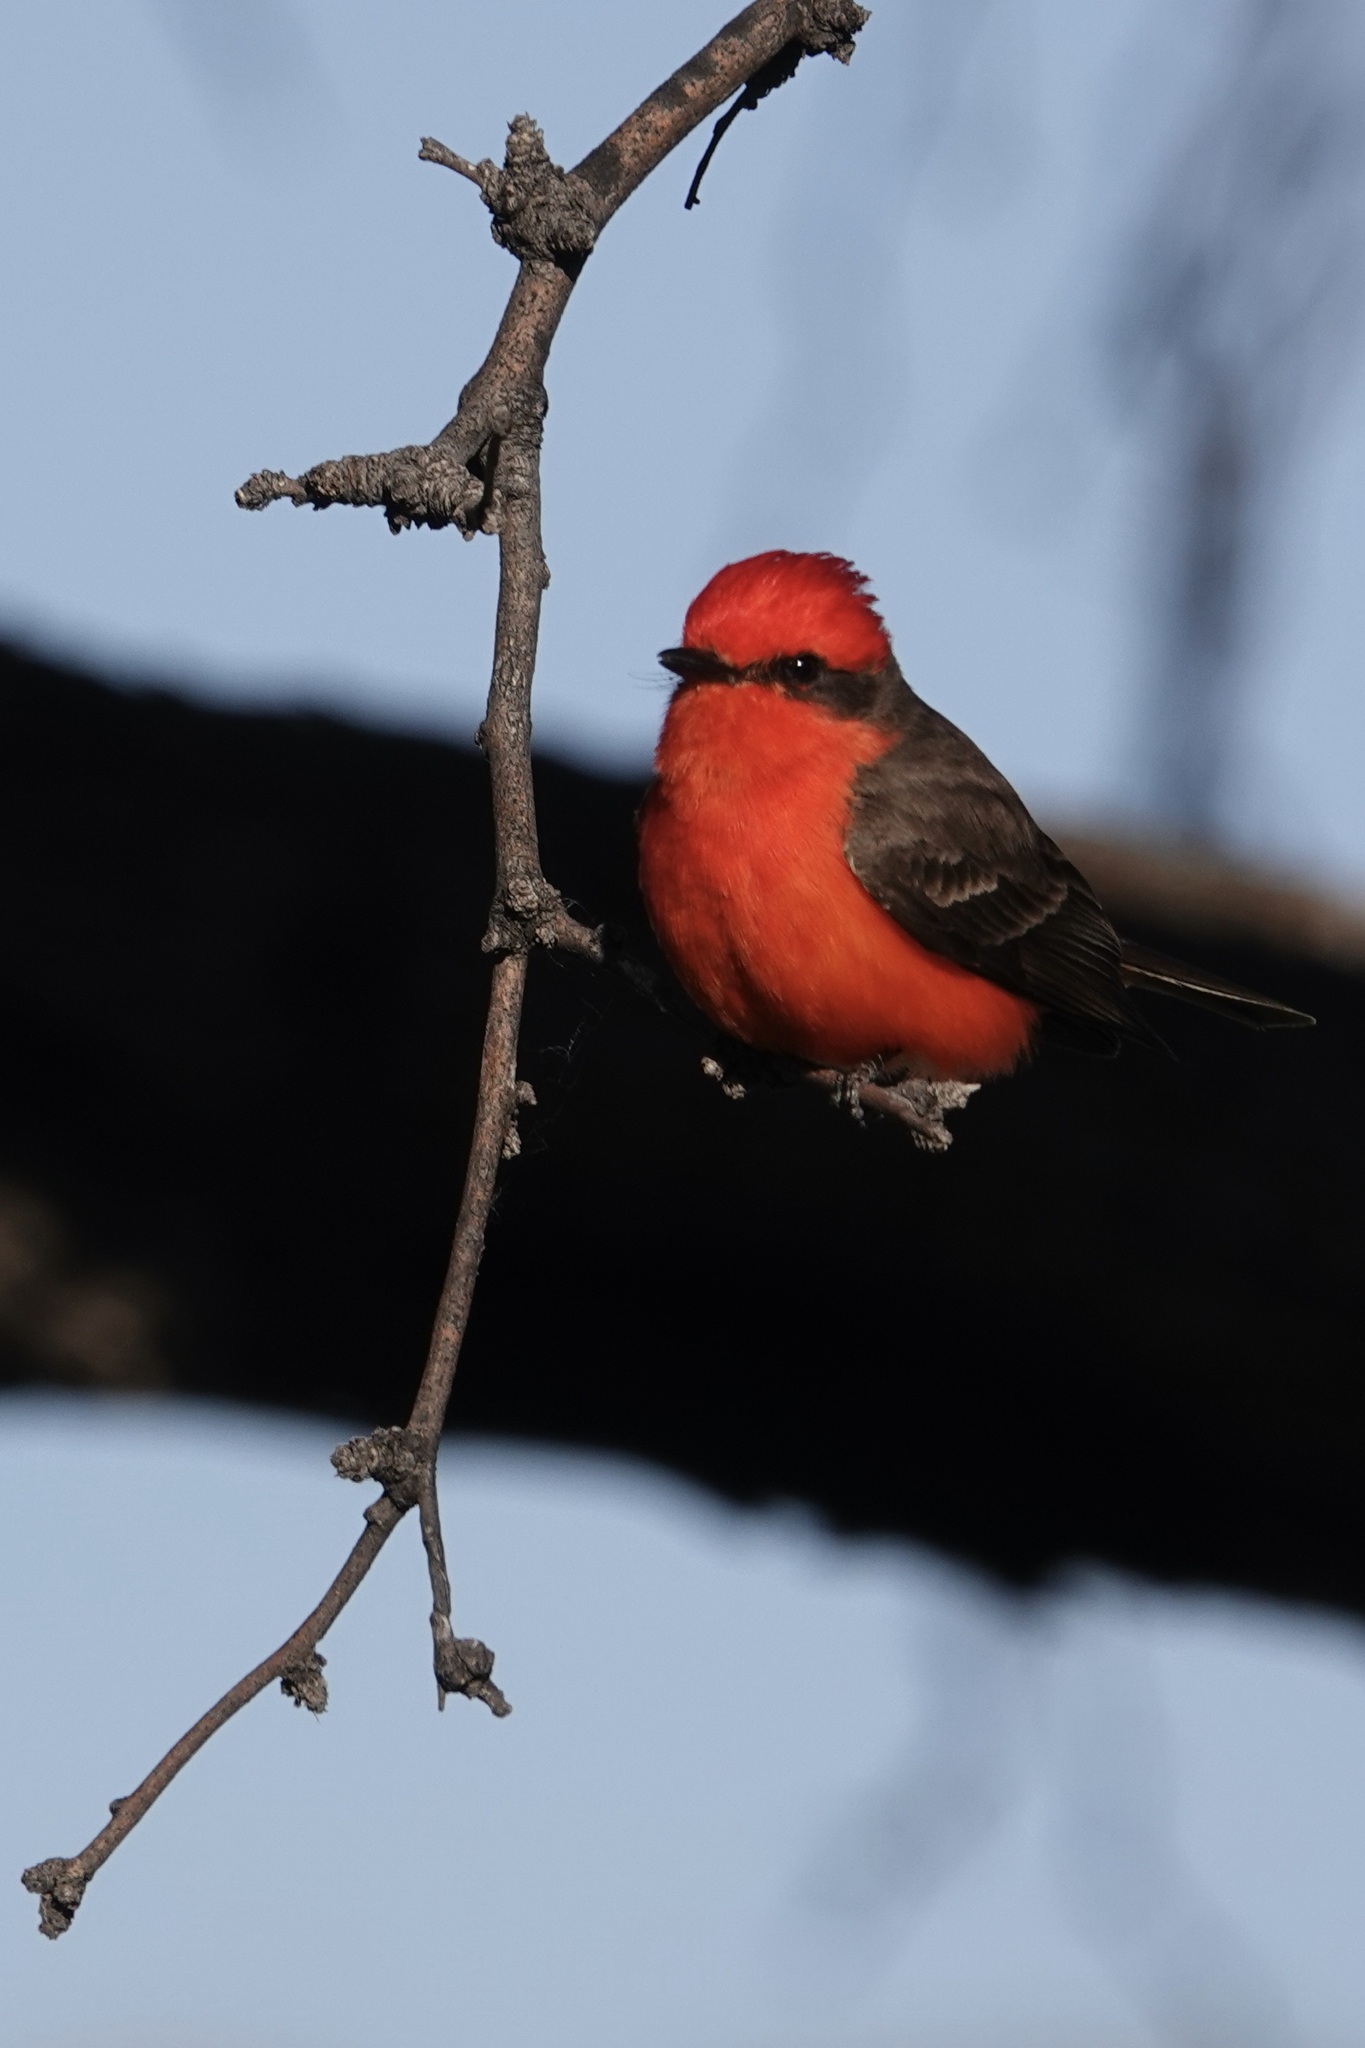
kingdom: Animalia
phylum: Chordata
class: Aves
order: Passeriformes
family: Tyrannidae
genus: Pyrocephalus
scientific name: Pyrocephalus rubinus
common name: Vermilion flycatcher
